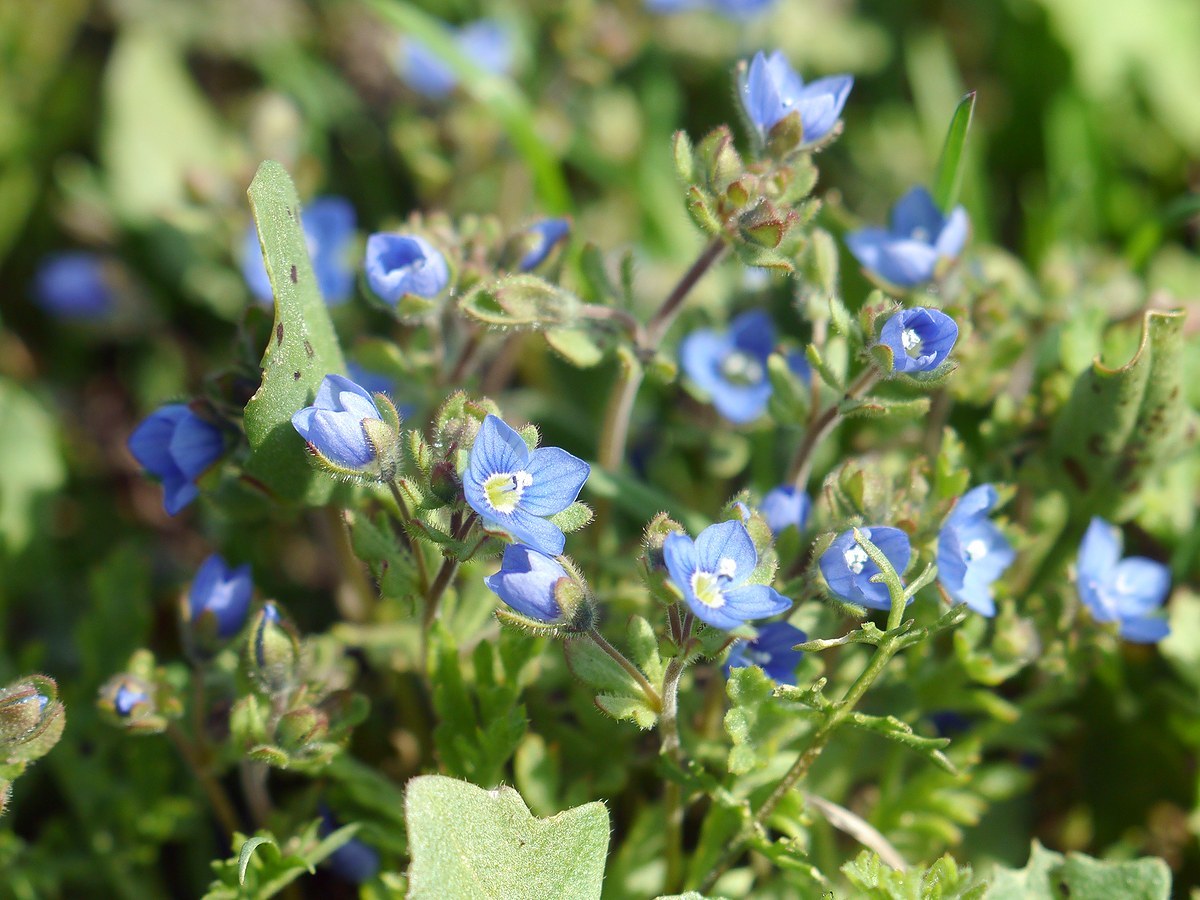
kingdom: Plantae
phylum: Tracheophyta
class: Magnoliopsida
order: Lamiales
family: Plantaginaceae
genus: Veronica
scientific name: Veronica triphyllos
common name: Fingered speedwell
